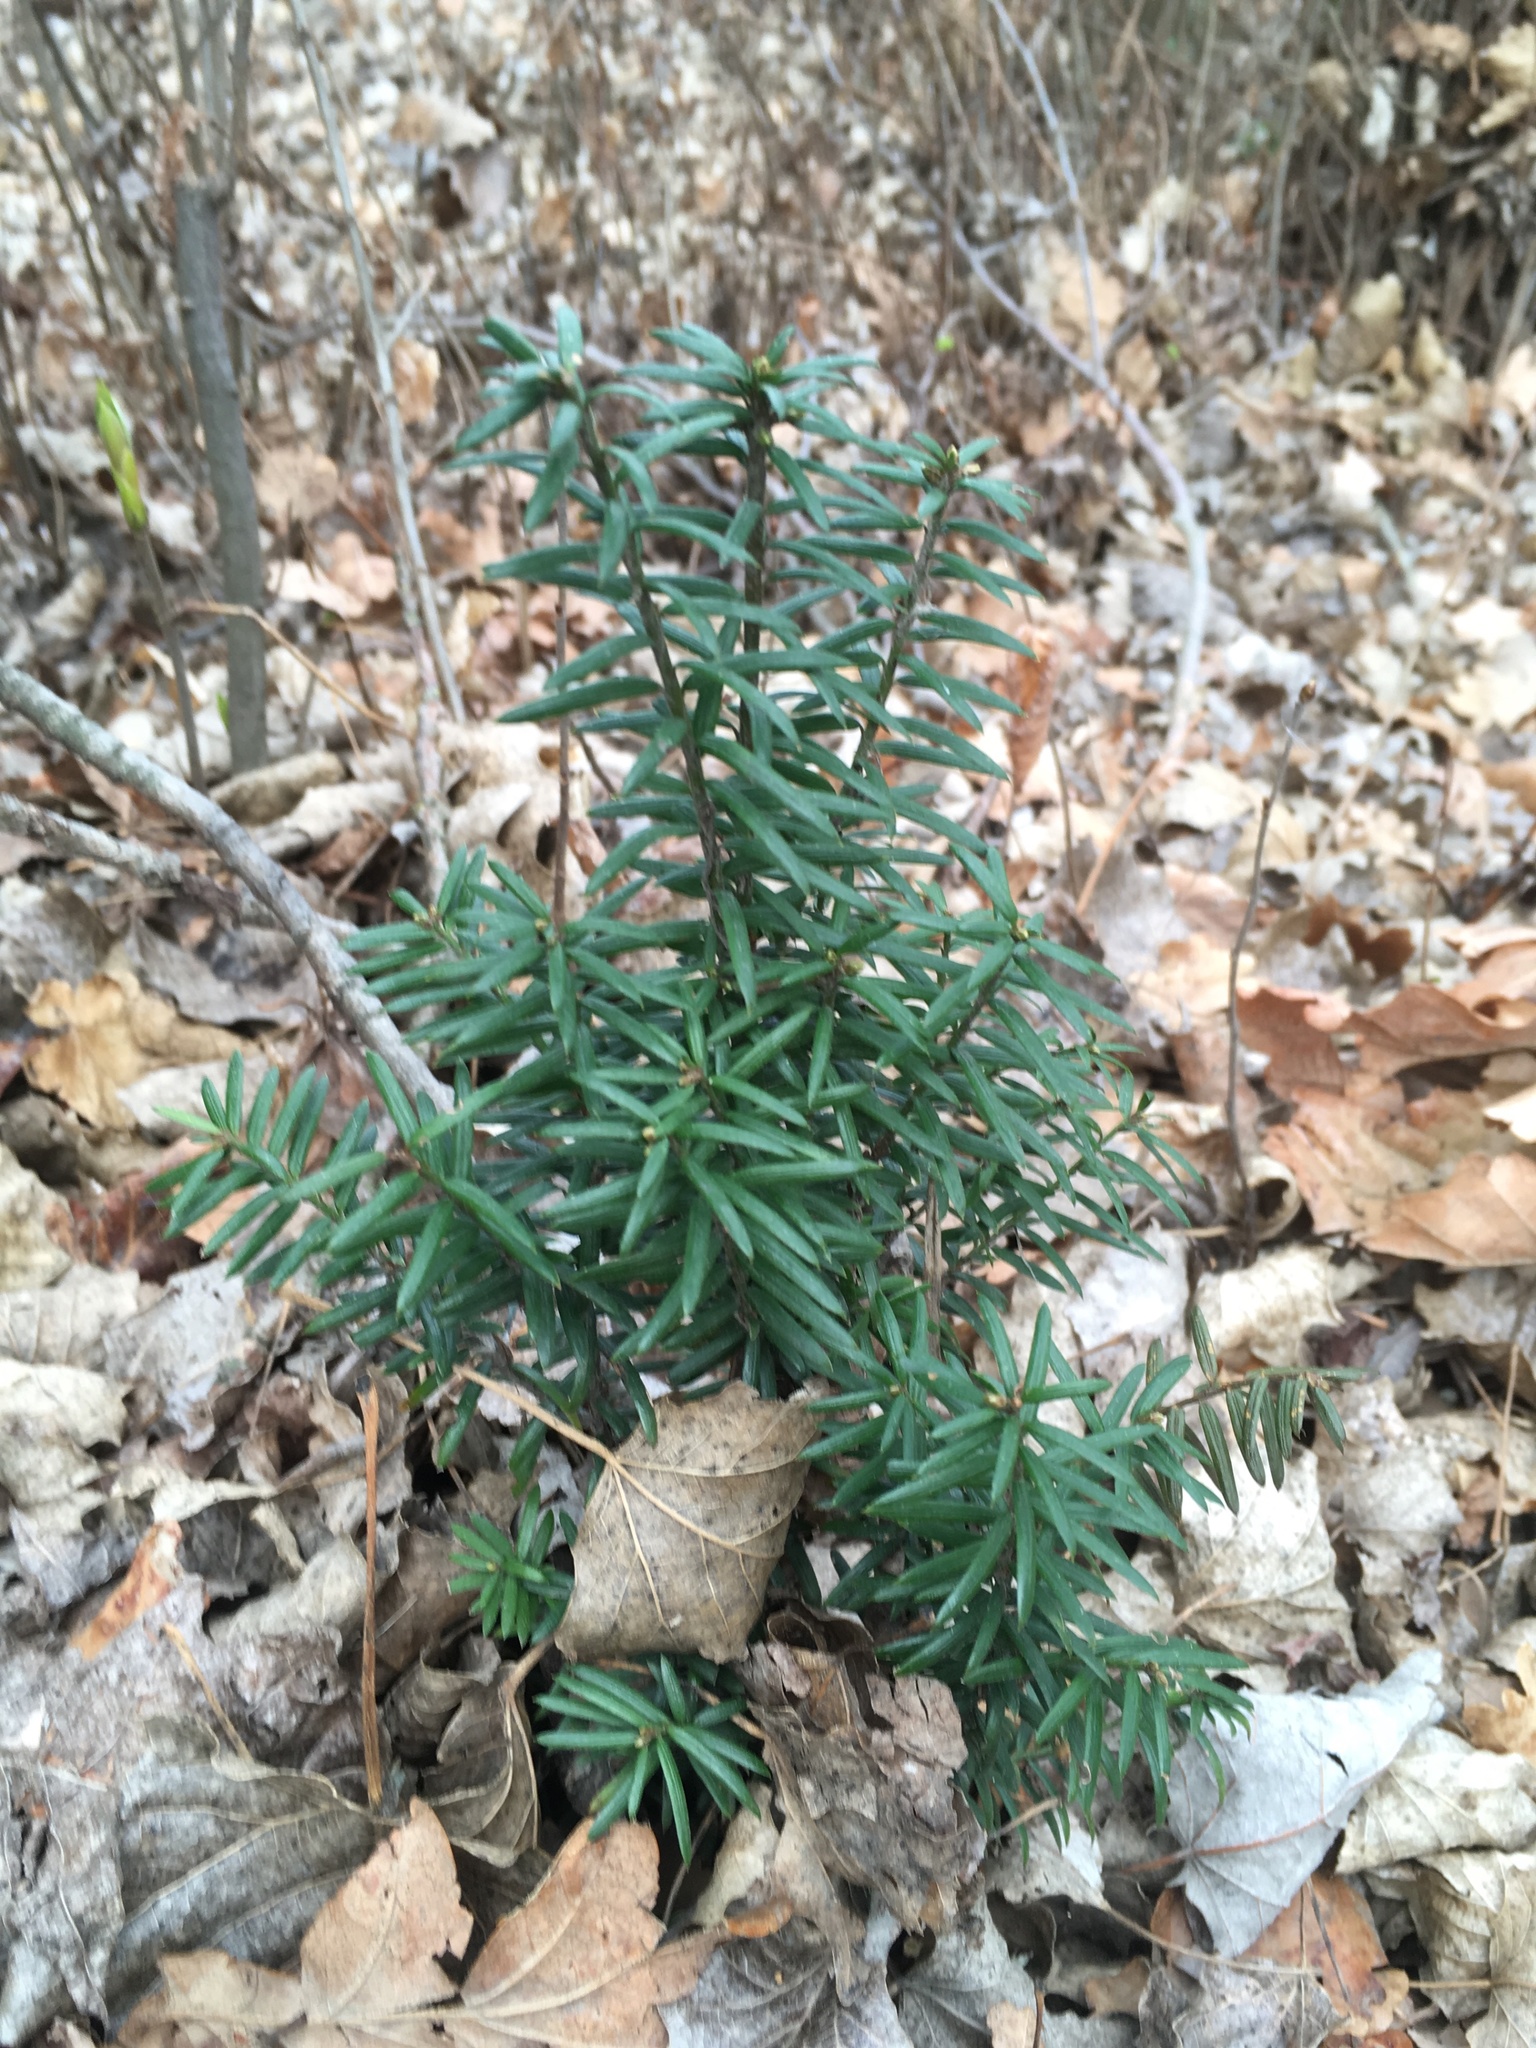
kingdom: Plantae
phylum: Tracheophyta
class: Pinopsida
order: Pinales
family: Taxaceae
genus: Taxus
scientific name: Taxus baccata
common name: Yew
